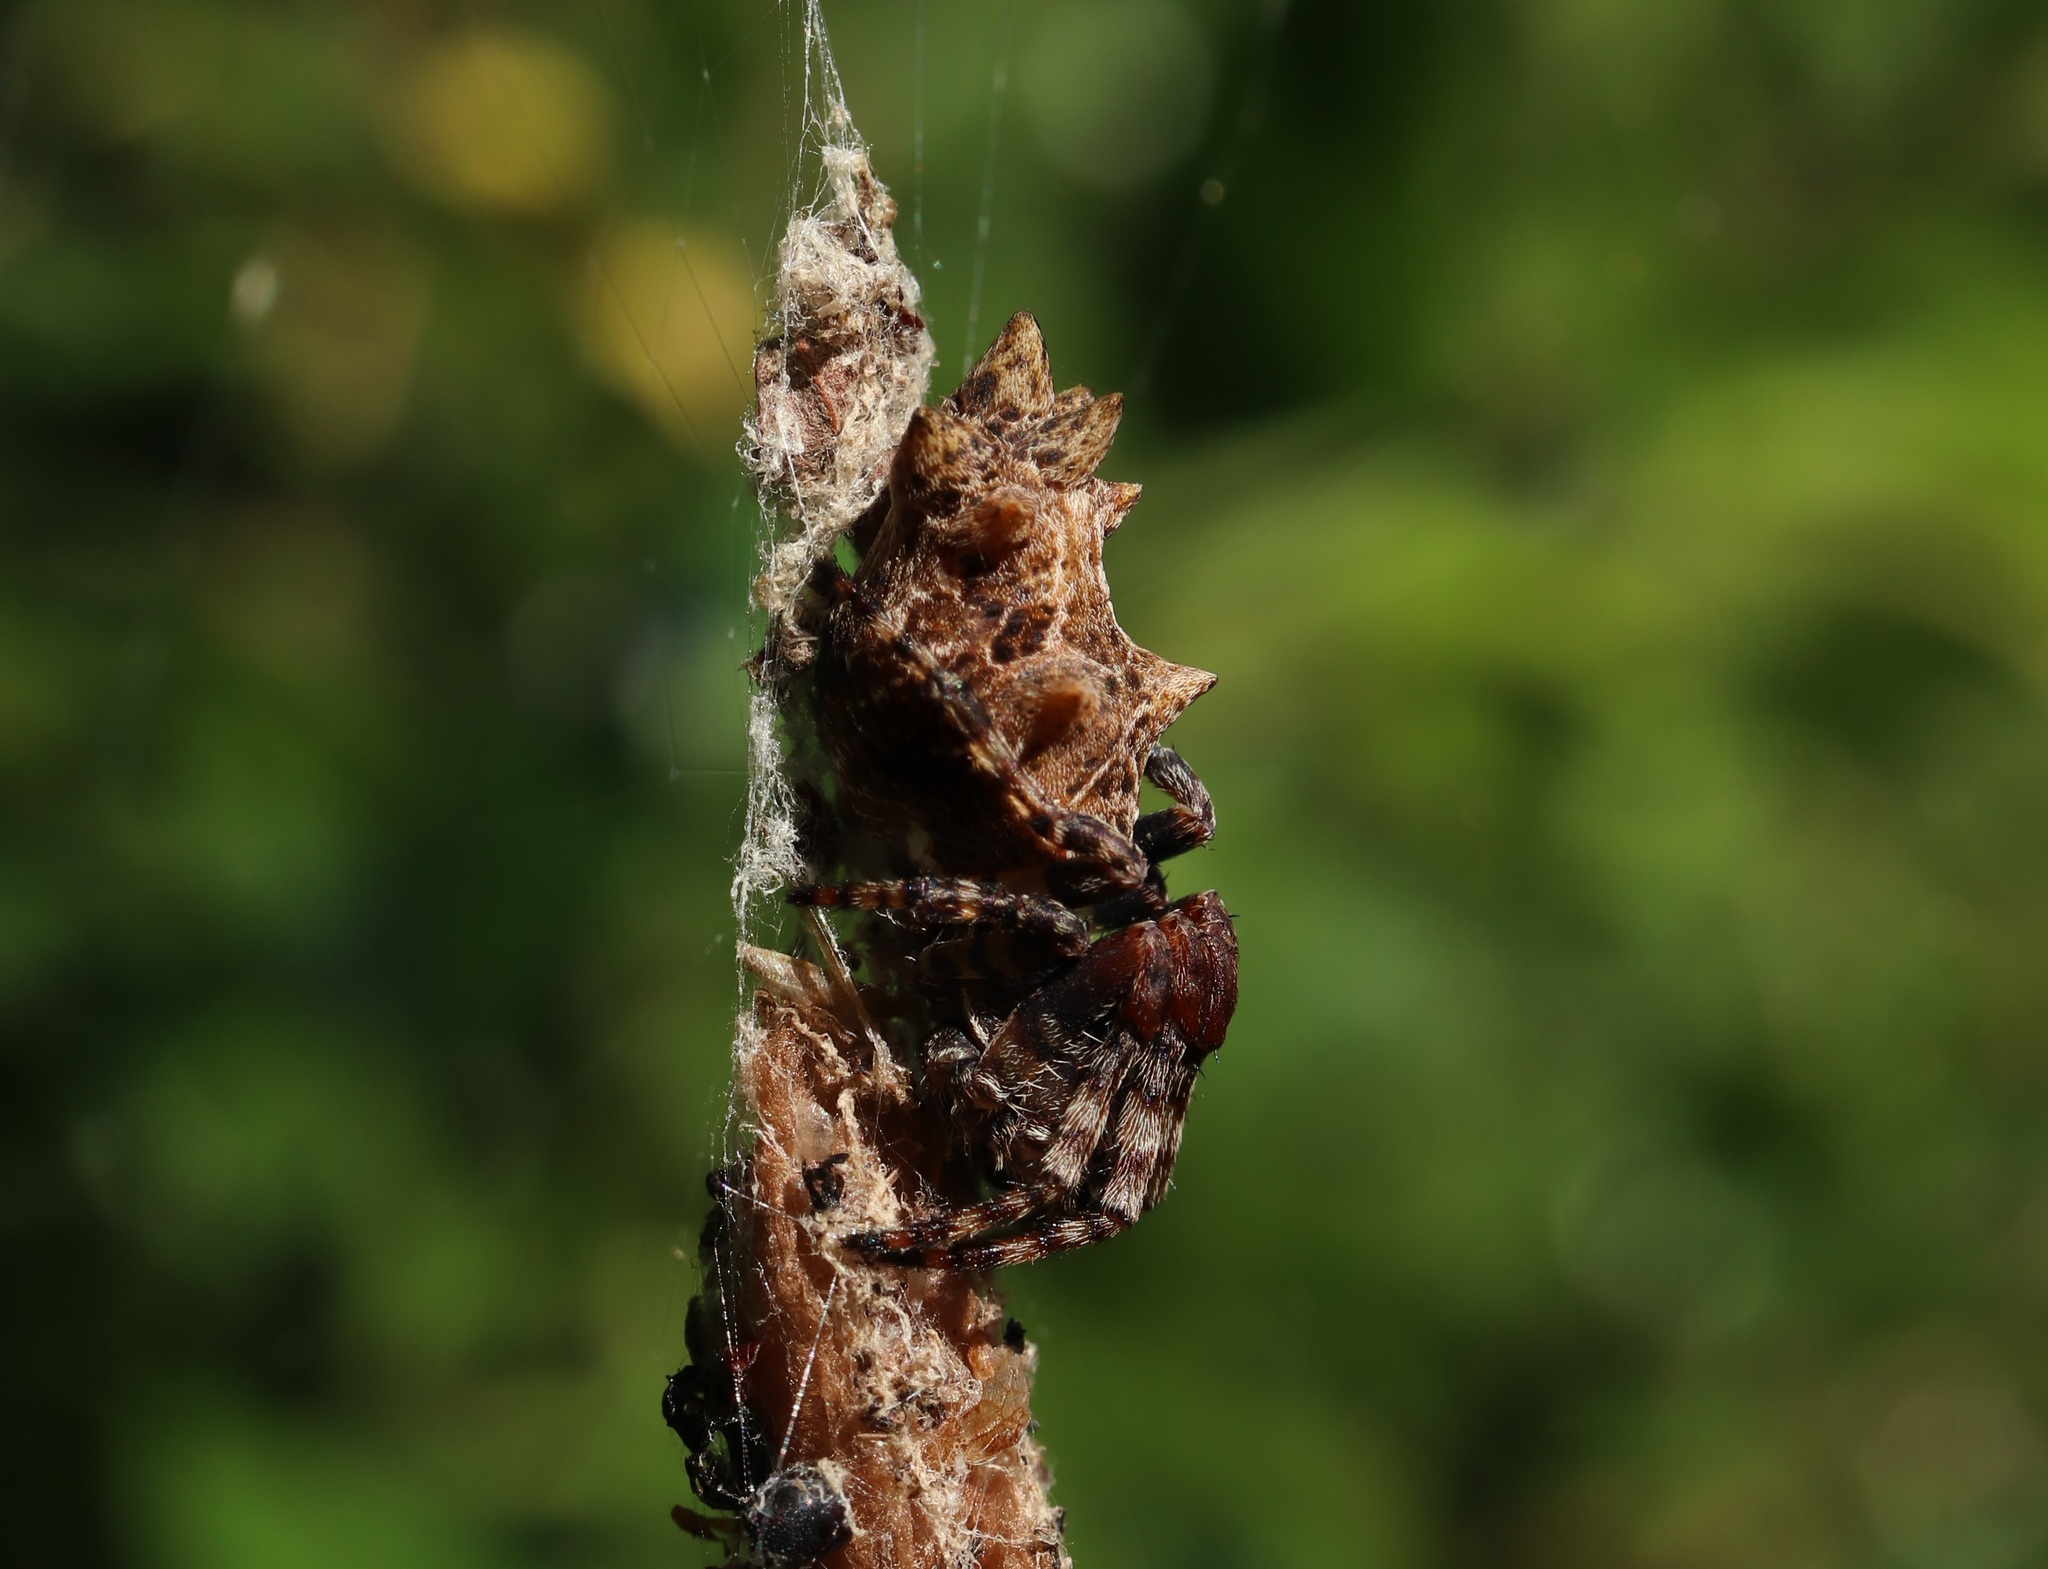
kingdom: Animalia
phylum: Arthropoda
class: Arachnida
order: Araneae
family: Araneidae
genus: Cyclosa
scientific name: Cyclosa octotuberculata
